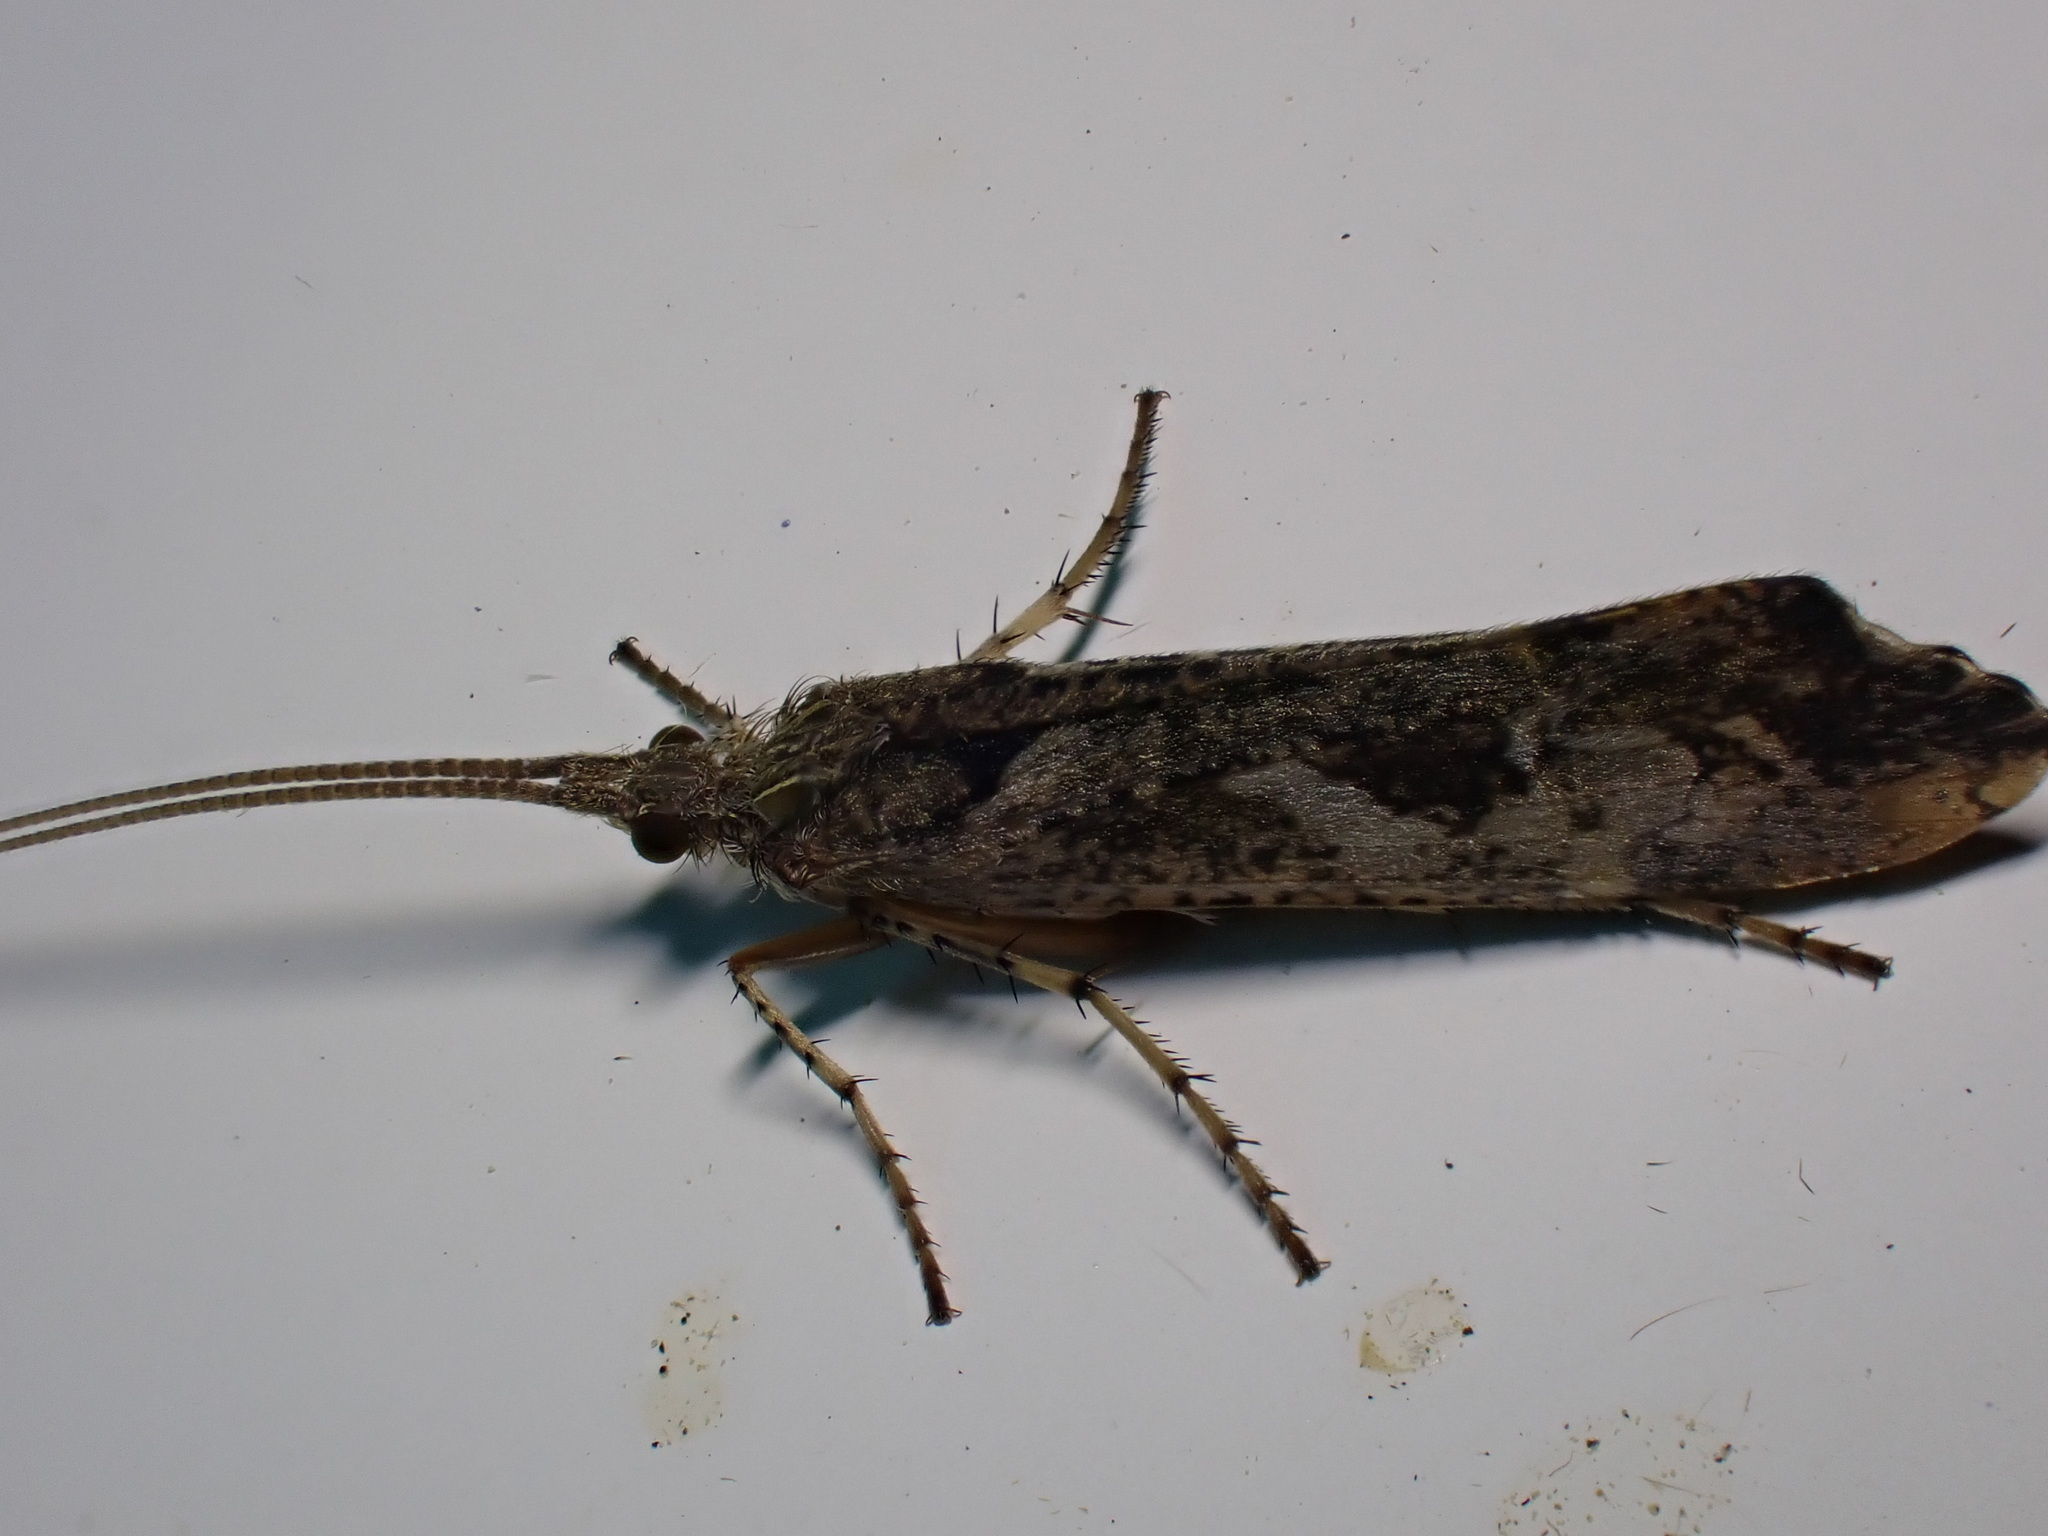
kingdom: Animalia
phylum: Arthropoda
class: Insecta
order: Trichoptera
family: Limnephilidae
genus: Glyphotaelius
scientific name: Glyphotaelius pellucidus
